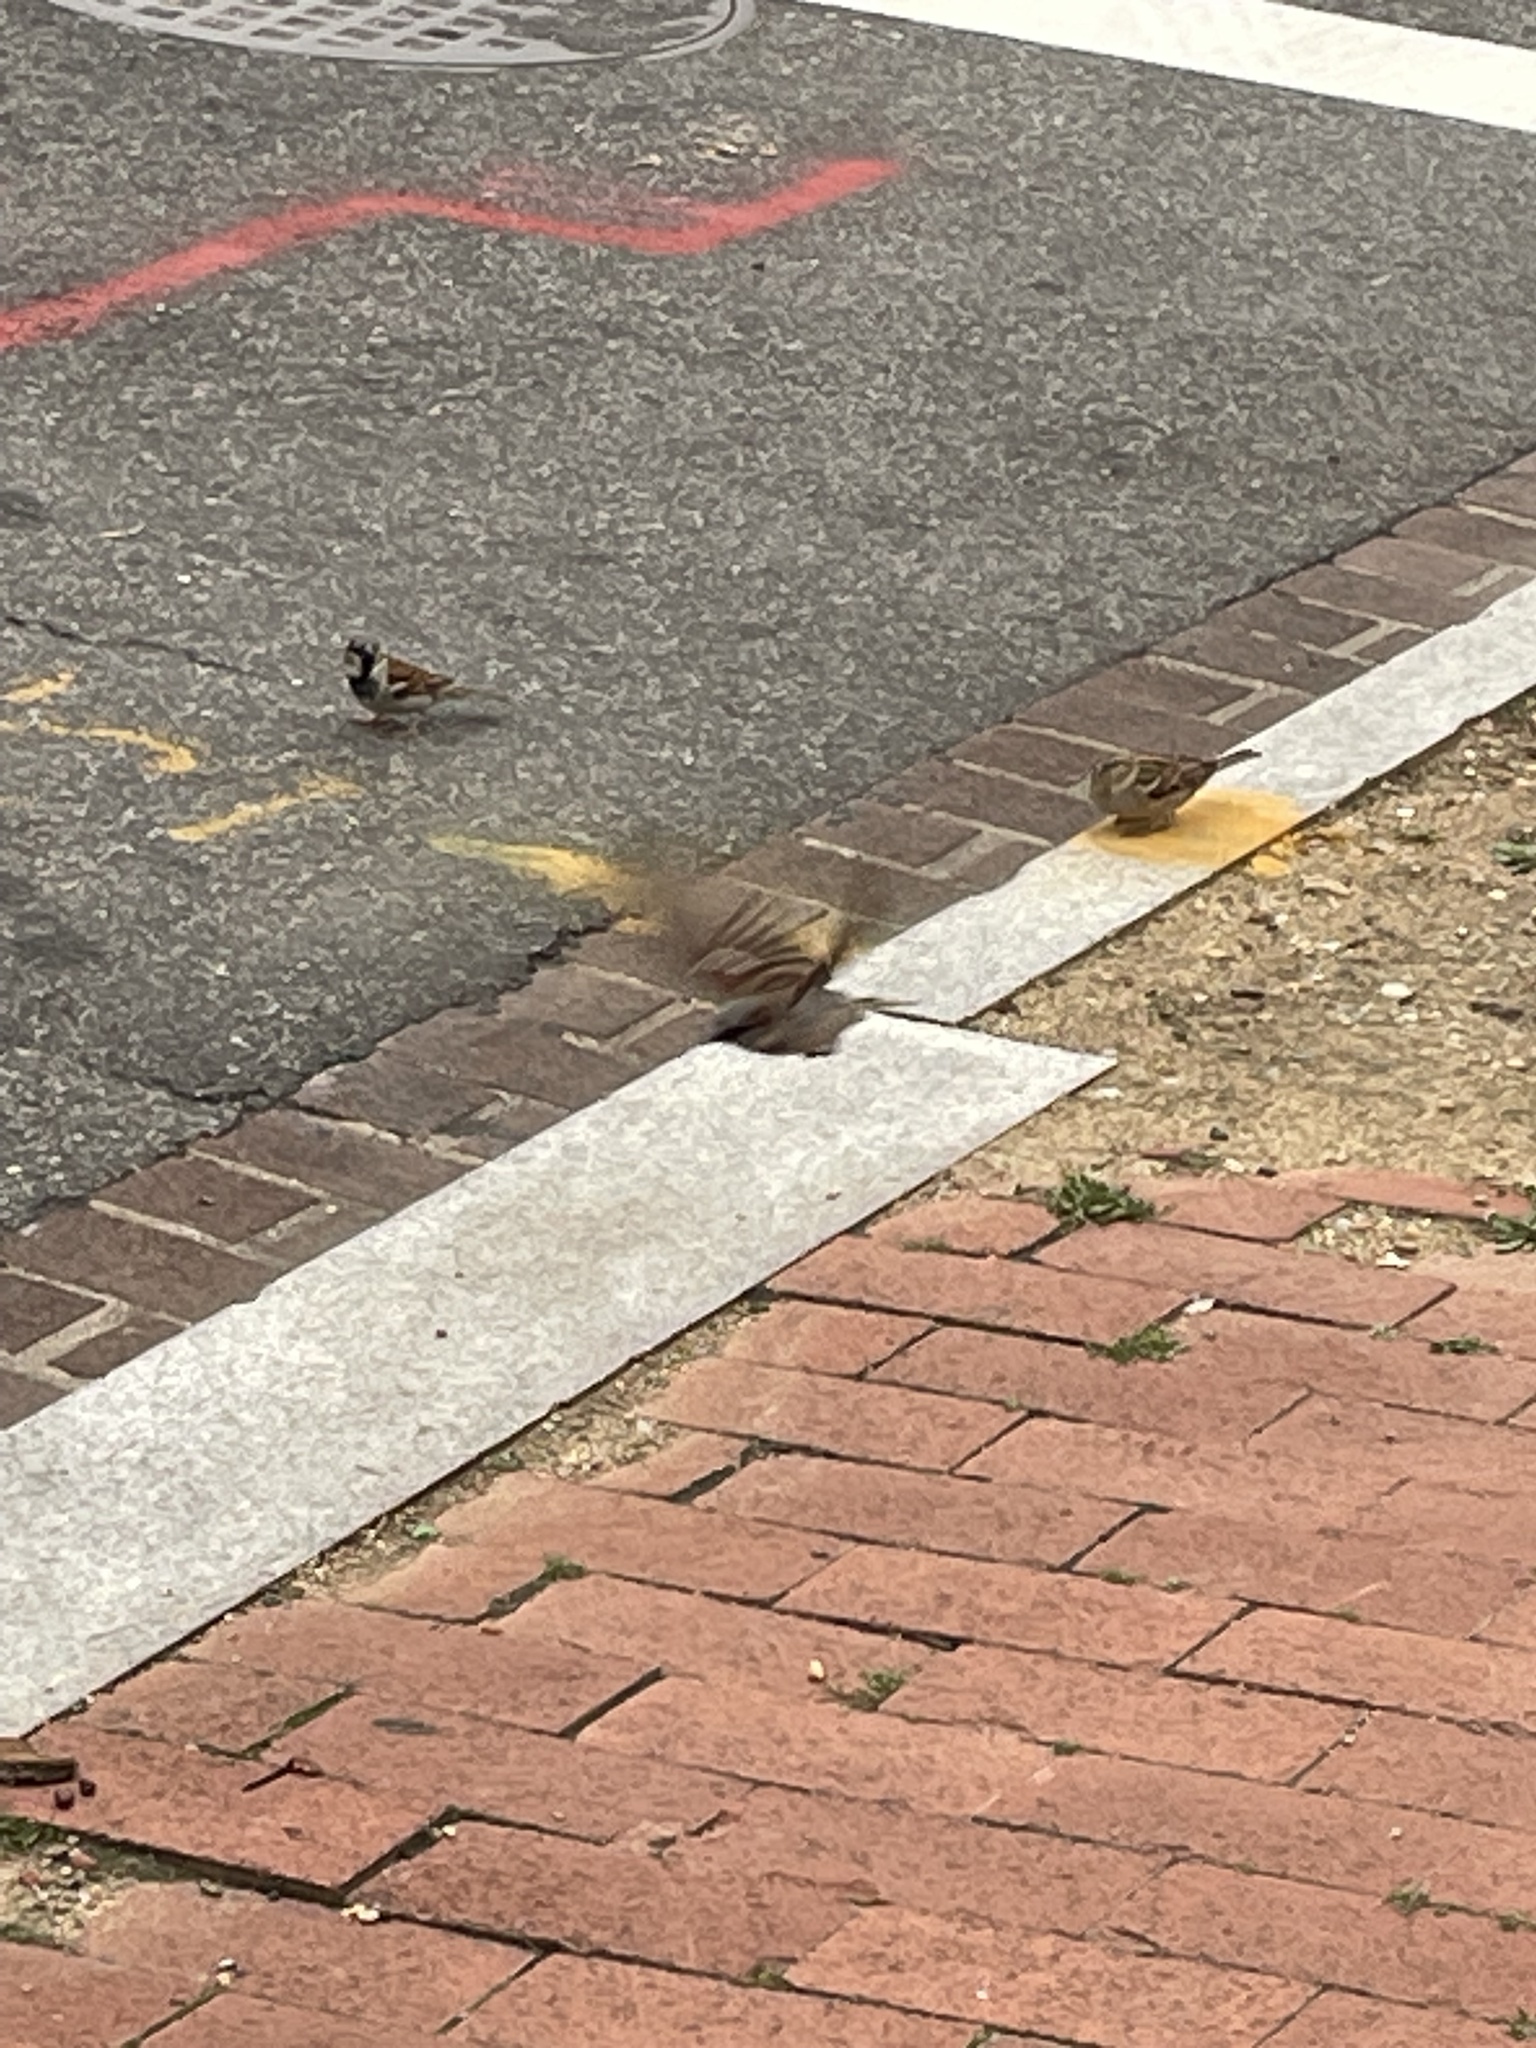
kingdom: Animalia
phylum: Chordata
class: Aves
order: Passeriformes
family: Passeridae
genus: Passer
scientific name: Passer domesticus
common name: House sparrow
